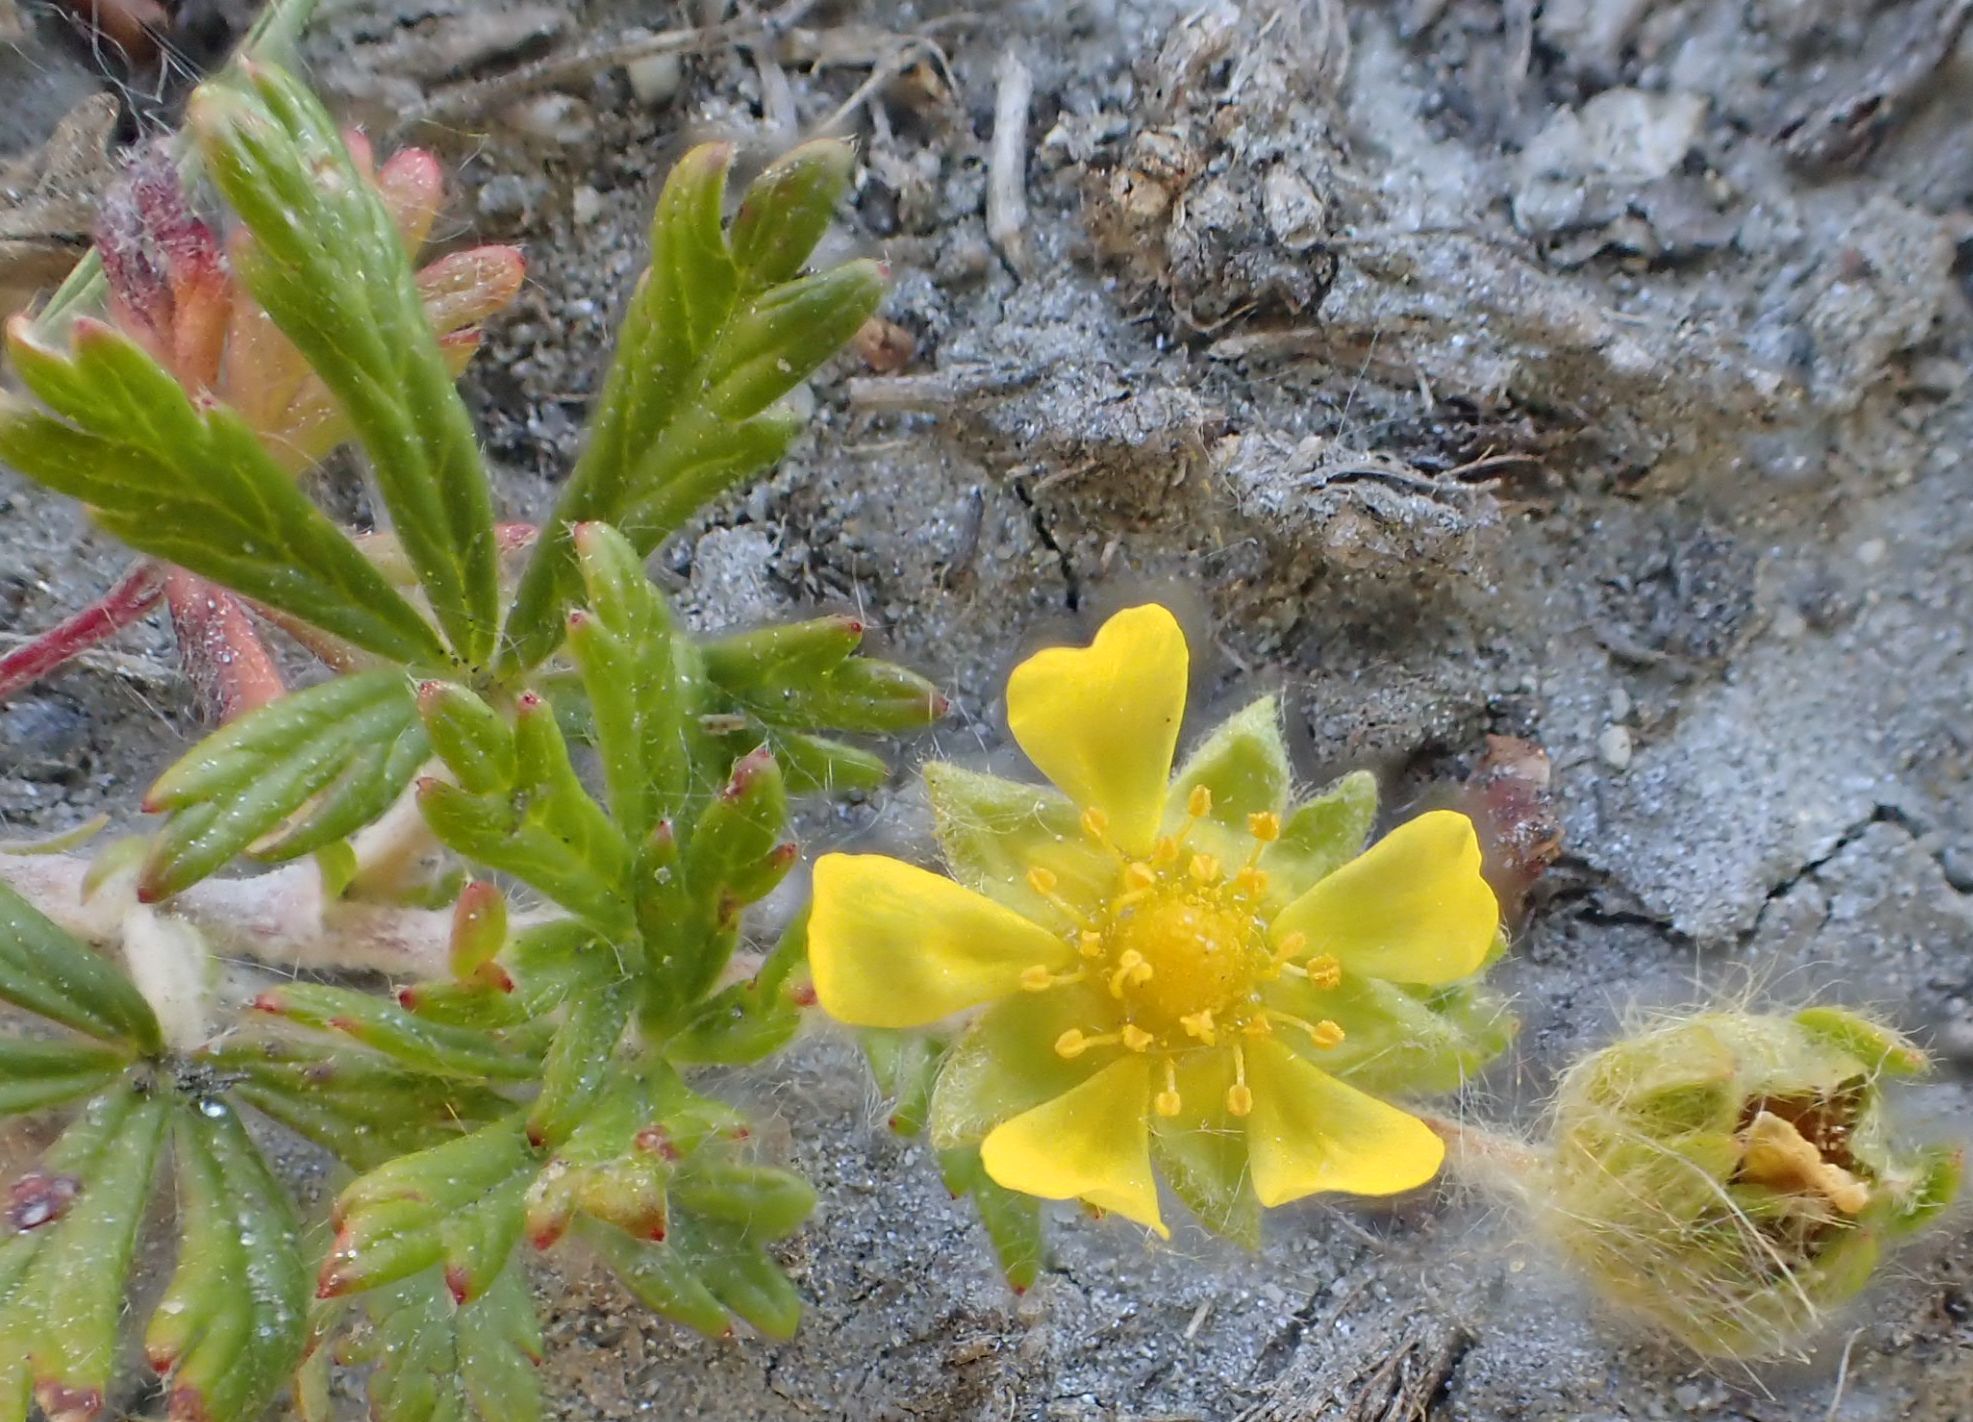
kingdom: Plantae
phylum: Tracheophyta
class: Magnoliopsida
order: Rosales
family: Rosaceae
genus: Potentilla
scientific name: Potentilla argentea
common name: Hoary cinquefoil
